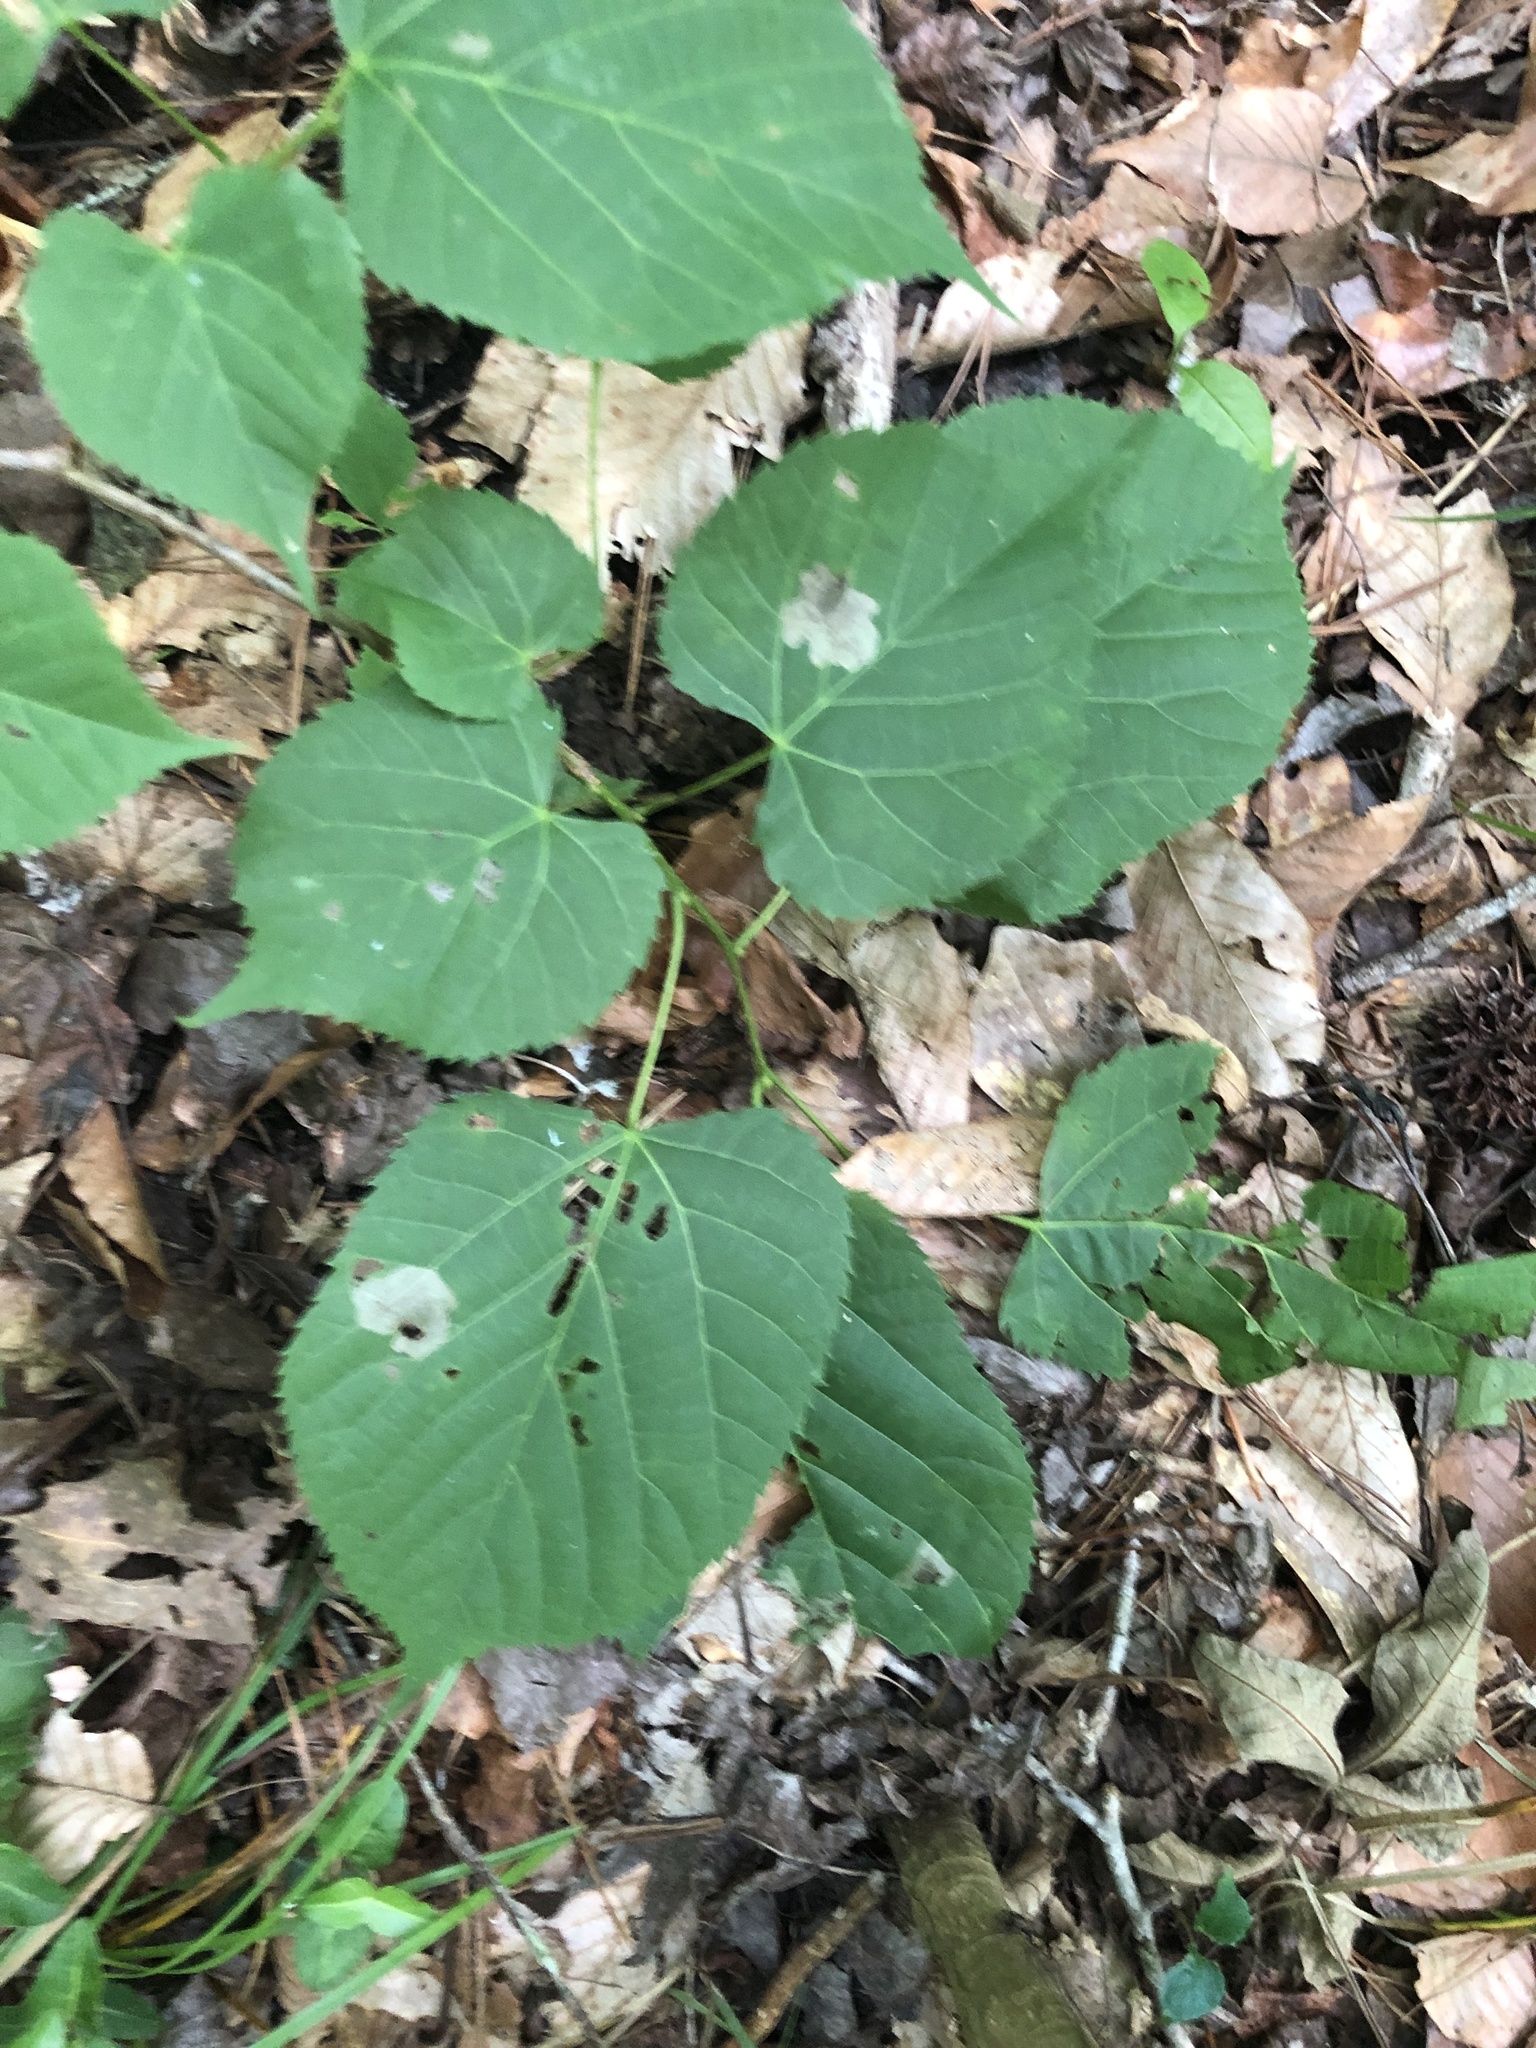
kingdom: Plantae
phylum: Tracheophyta
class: Magnoliopsida
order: Malvales
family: Malvaceae
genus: Tilia
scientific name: Tilia americana
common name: Basswood
